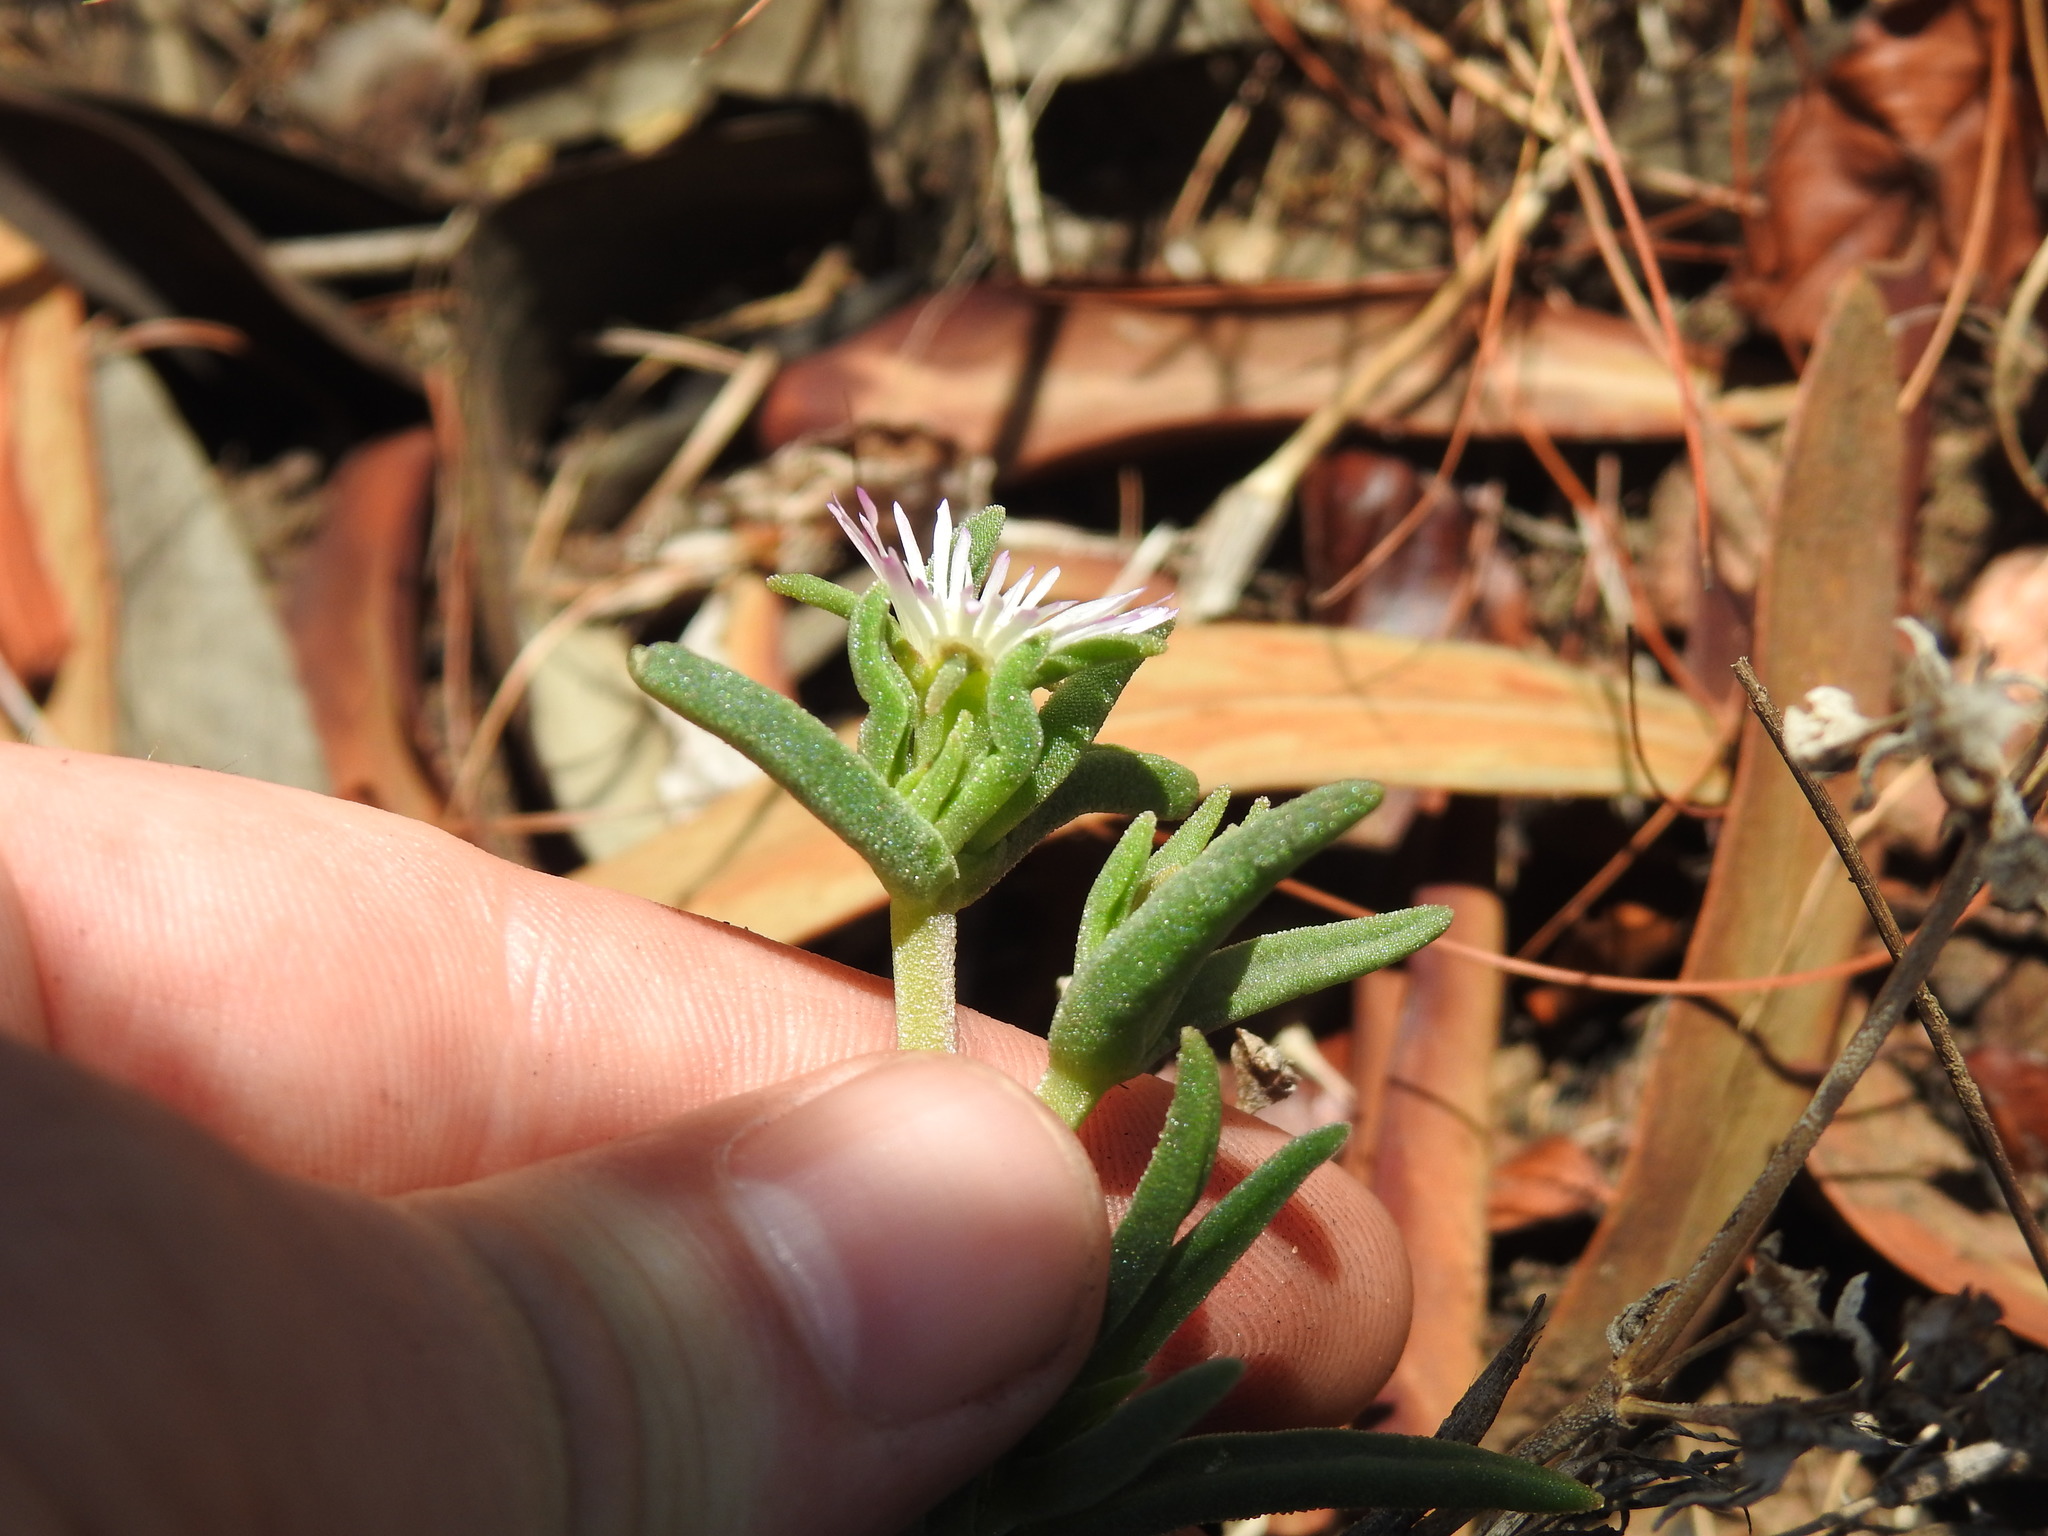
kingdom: Plantae
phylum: Tracheophyta
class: Magnoliopsida
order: Caryophyllales
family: Aizoaceae
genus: Delosperma
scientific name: Delosperma herbeum
